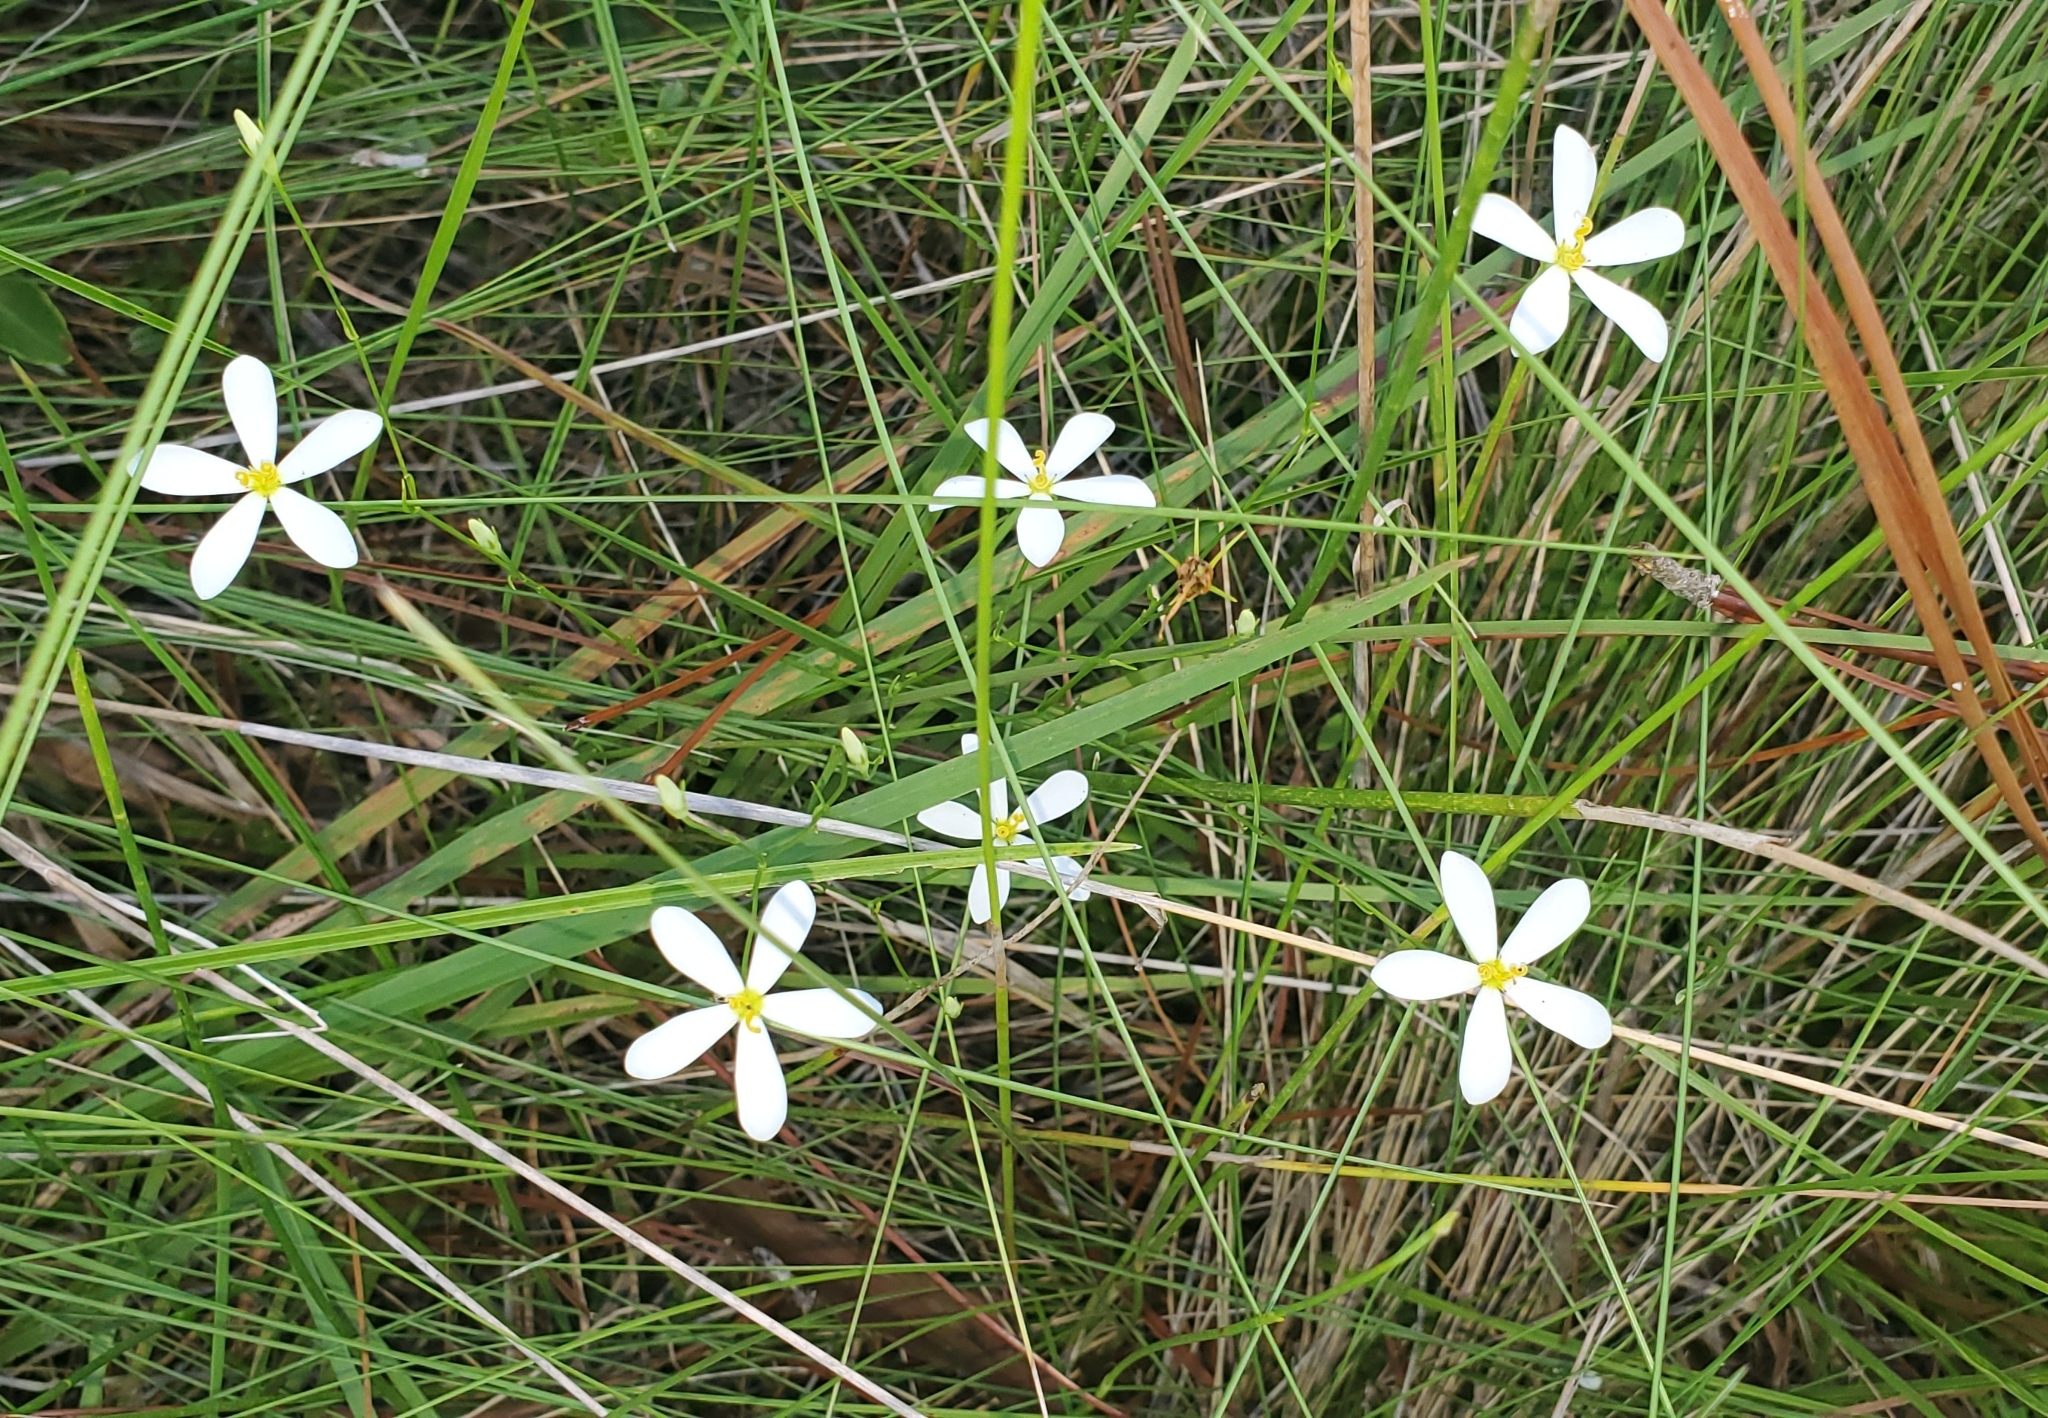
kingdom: Plantae
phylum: Tracheophyta
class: Magnoliopsida
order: Gentianales
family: Gentianaceae
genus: Sabatia
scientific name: Sabatia brevifolia
